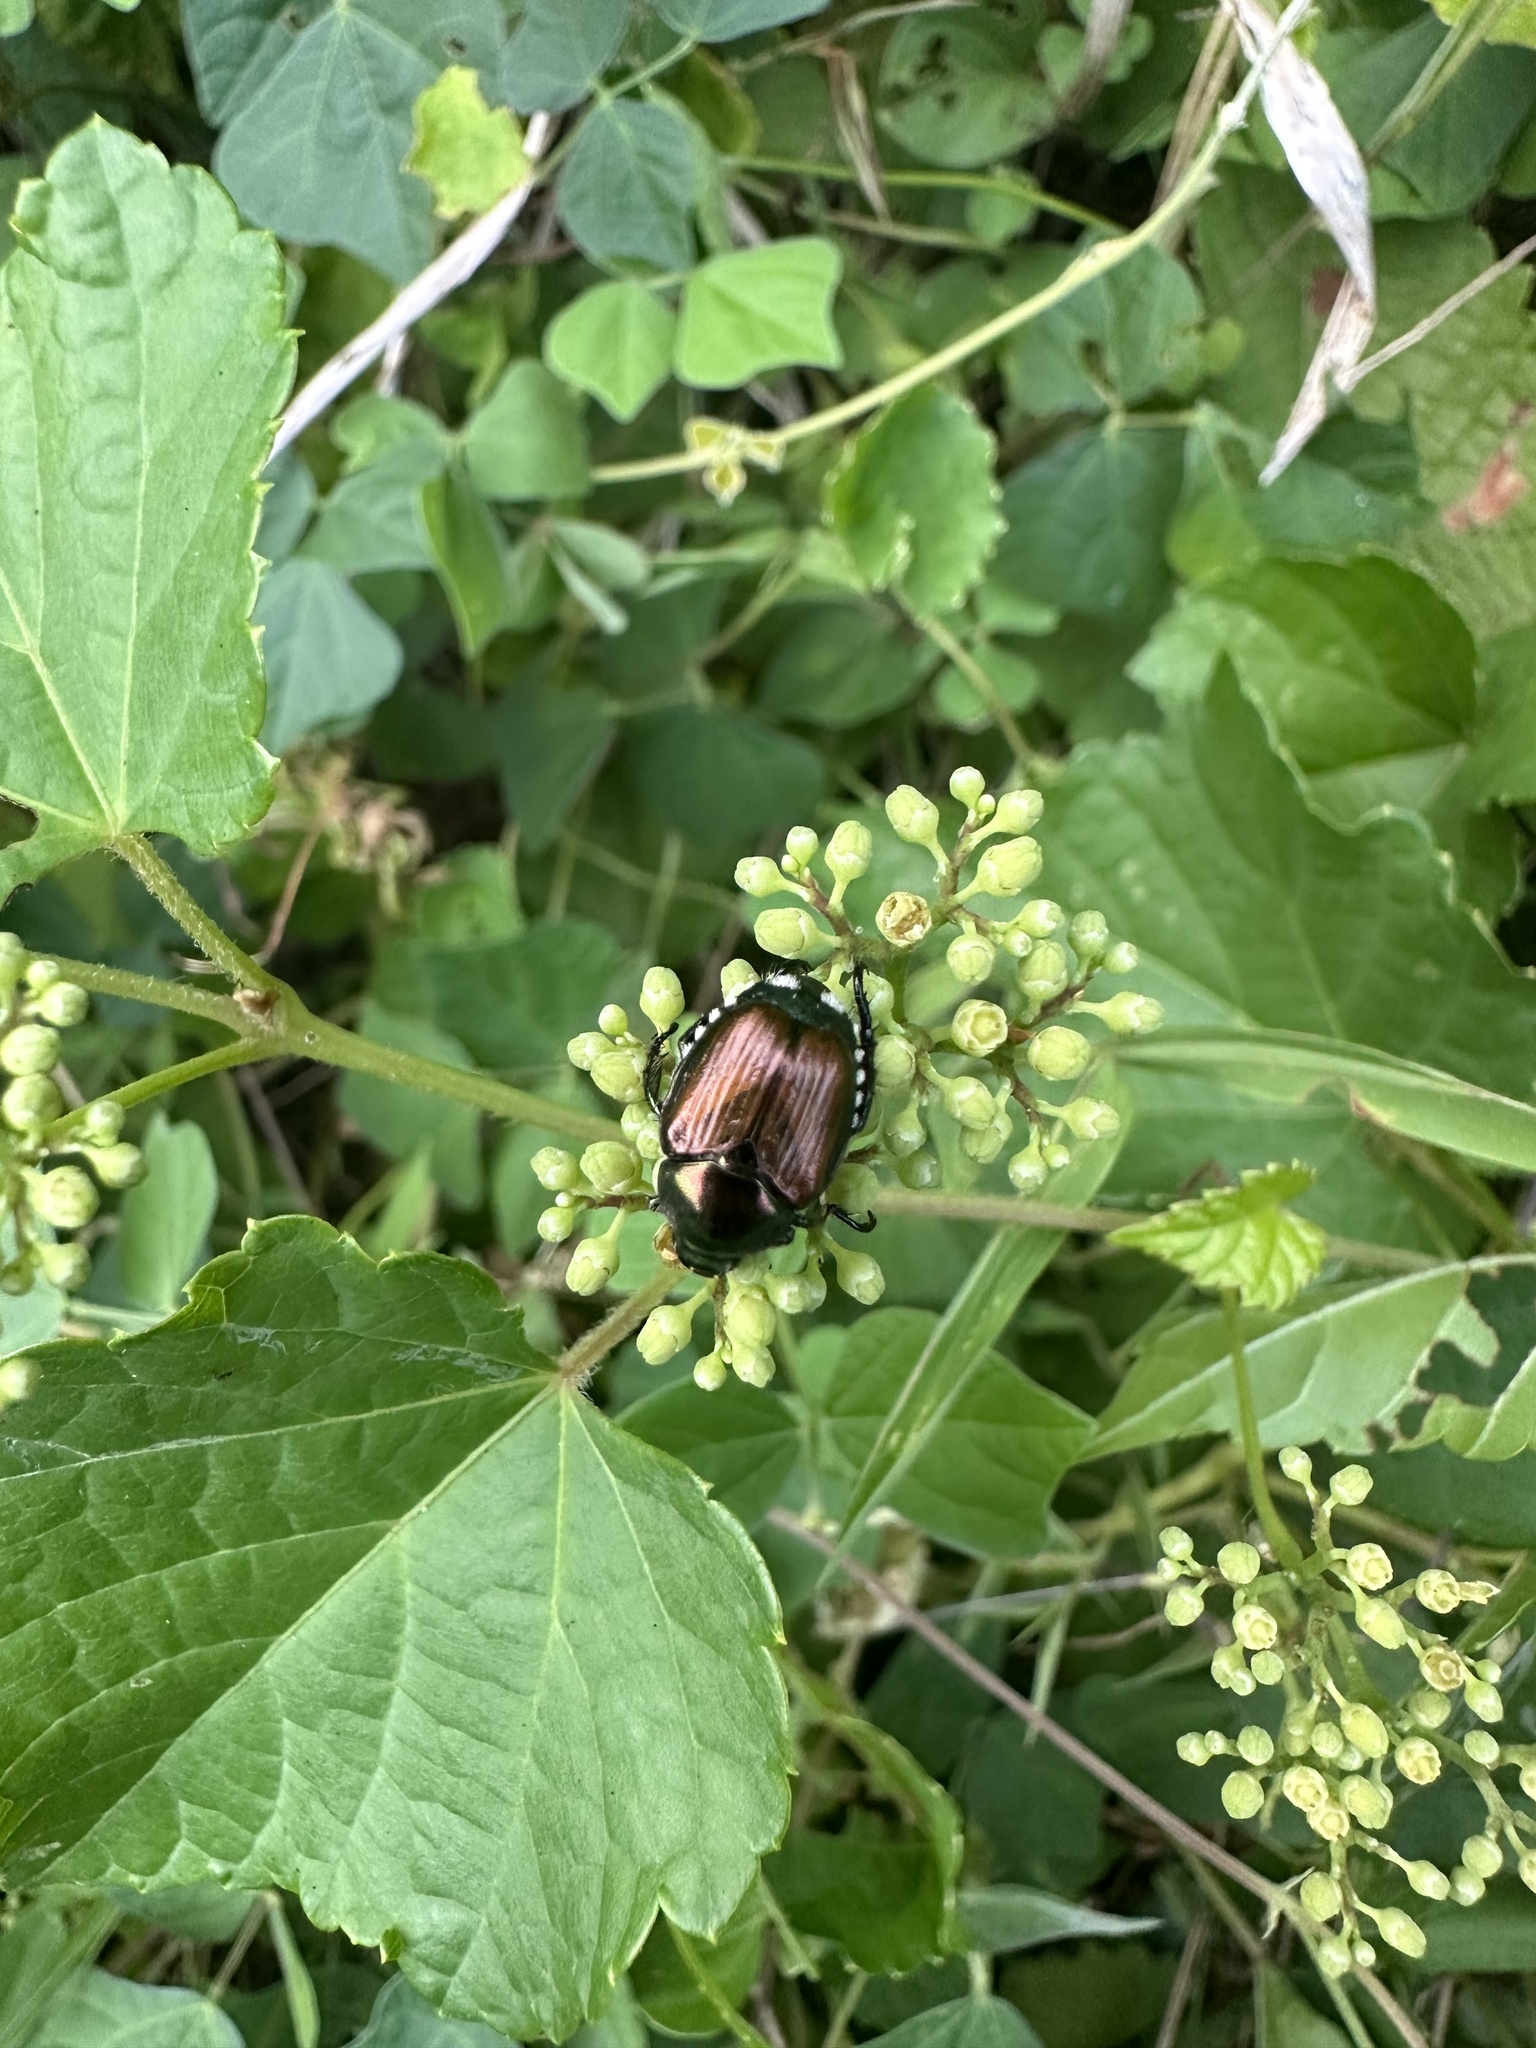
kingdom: Animalia
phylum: Arthropoda
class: Insecta
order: Coleoptera
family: Scarabaeidae
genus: Popillia
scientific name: Popillia japonica
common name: Japanese beetle
